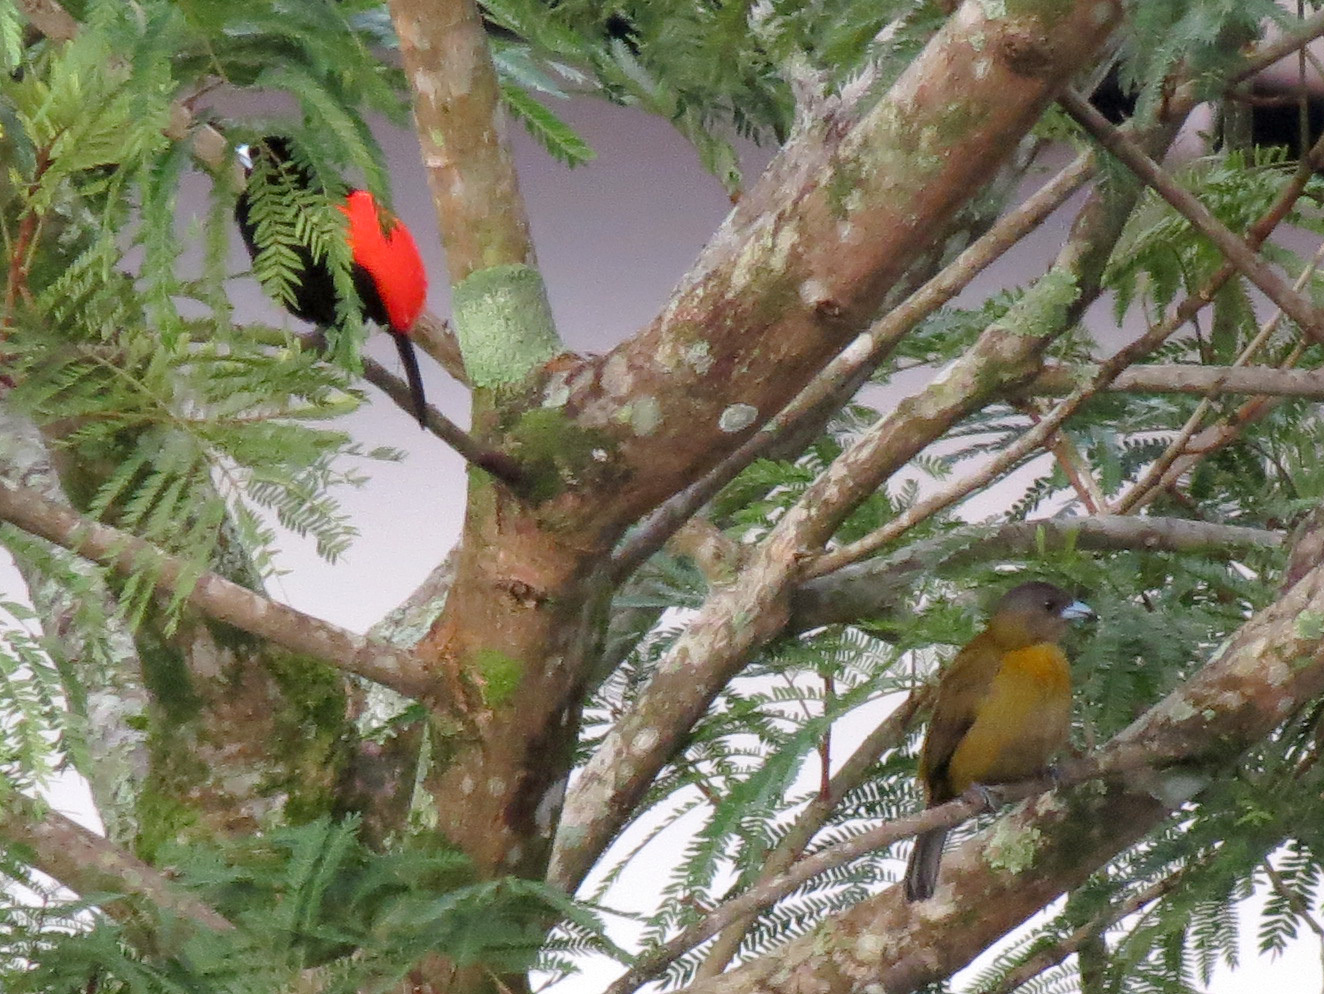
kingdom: Animalia
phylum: Chordata
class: Aves
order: Passeriformes
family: Thraupidae
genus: Ramphocelus
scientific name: Ramphocelus passerinii
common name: Passerini's tanager
